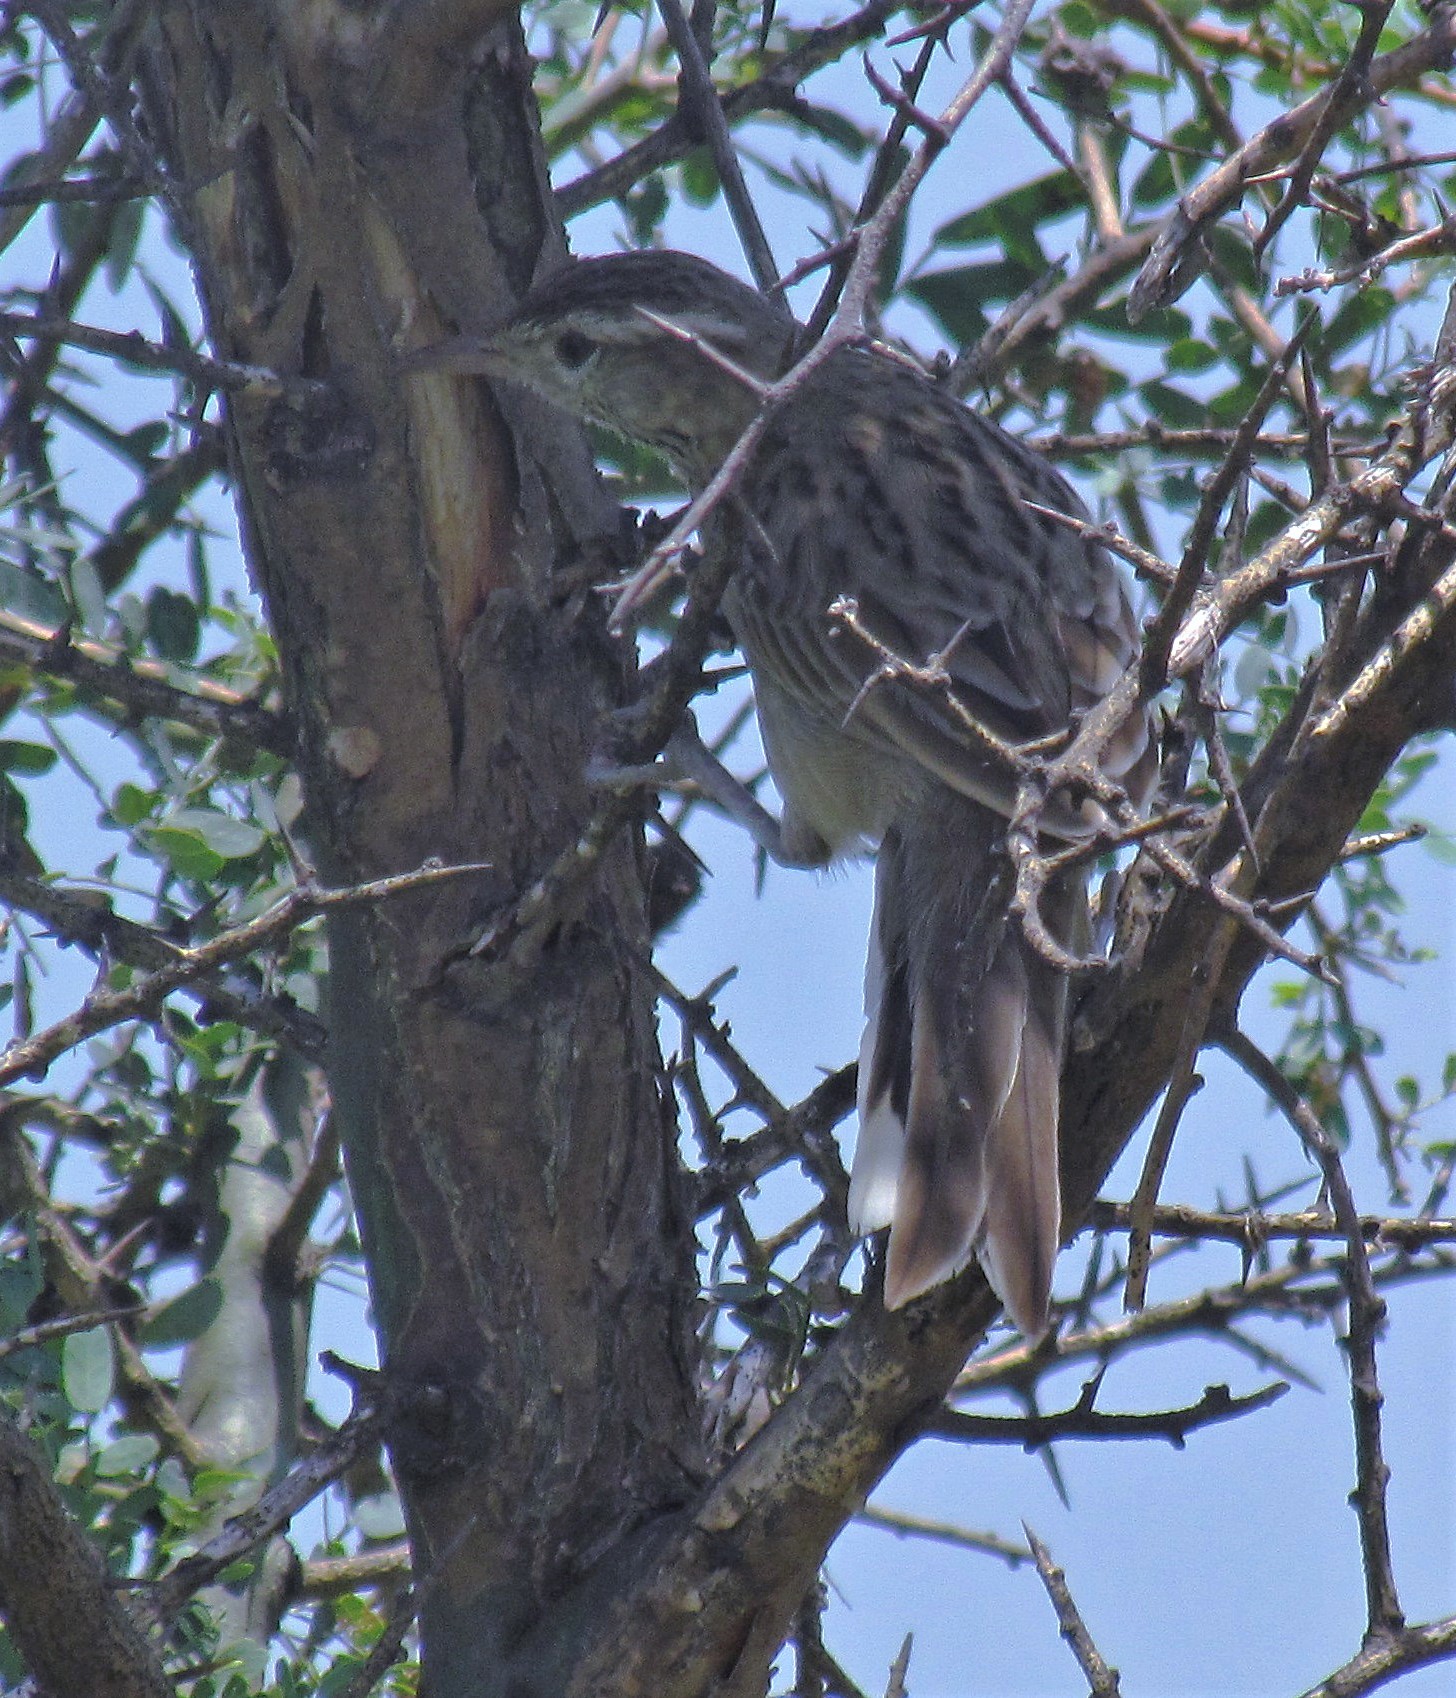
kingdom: Animalia
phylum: Chordata
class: Aves
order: Passeriformes
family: Furnariidae
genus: Anumbius
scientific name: Anumbius annumbi
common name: Firewood-gatherer
